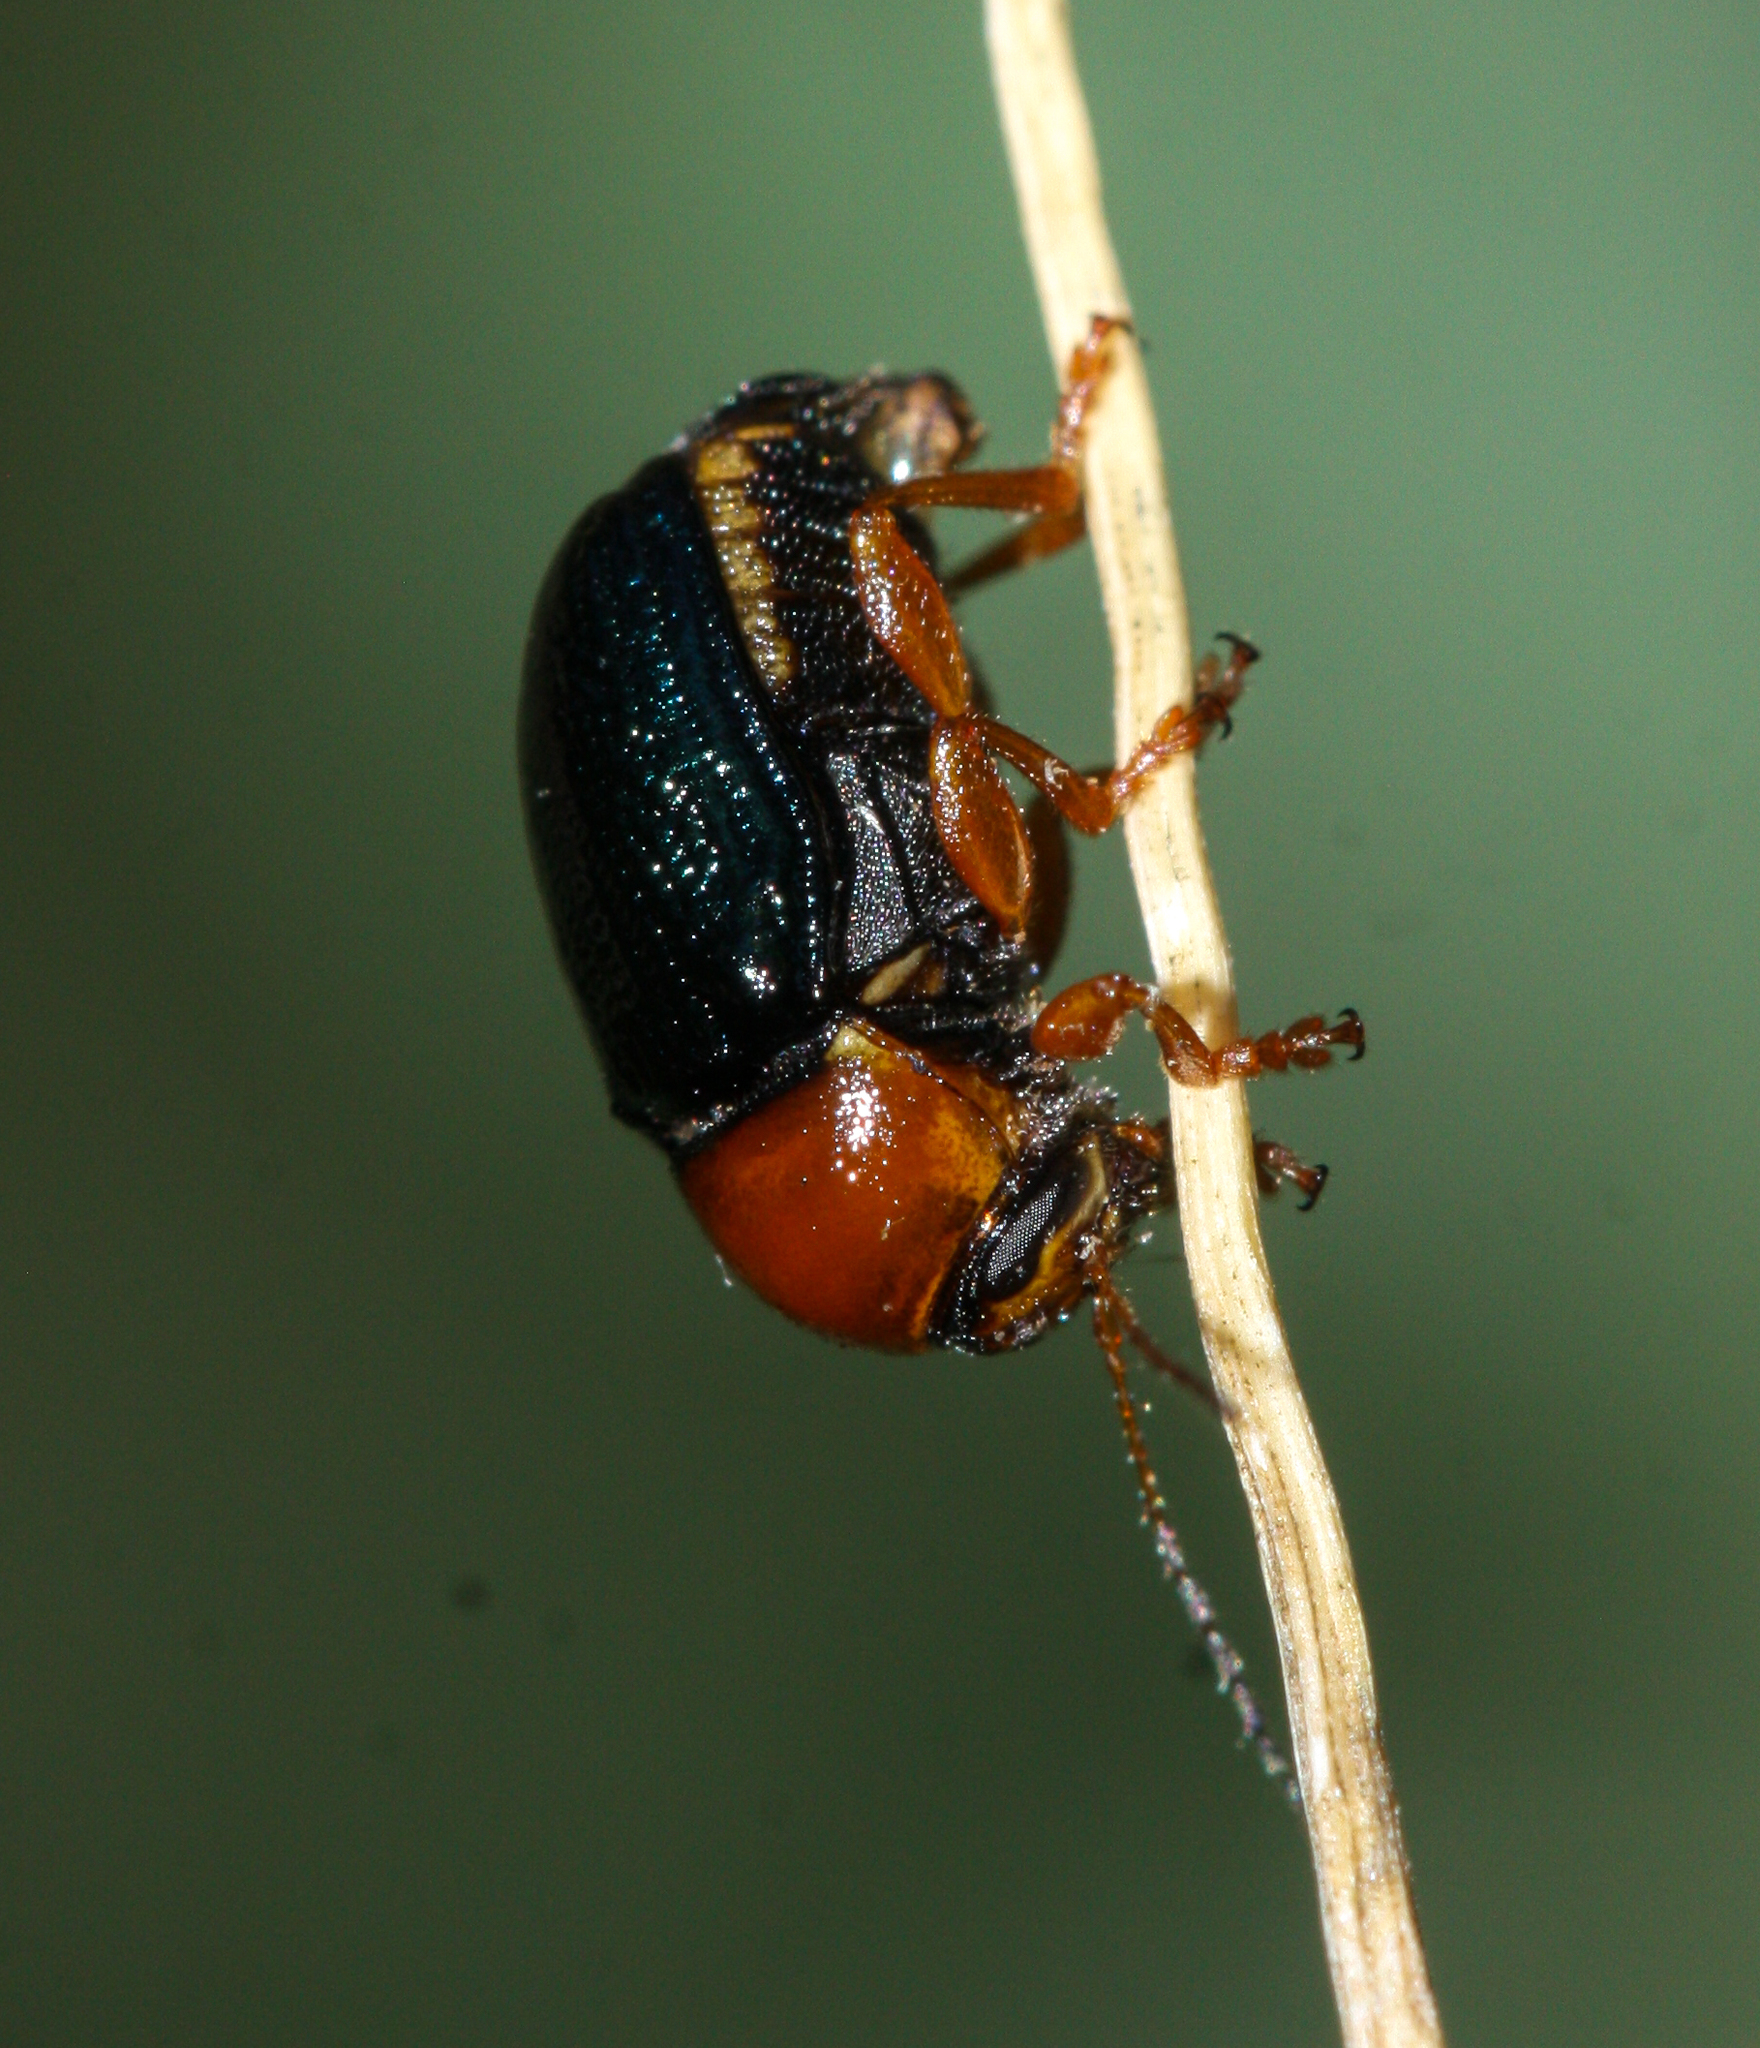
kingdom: Animalia
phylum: Arthropoda
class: Insecta
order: Coleoptera
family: Chrysomelidae
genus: Cryptocephalus
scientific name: Cryptocephalus arizonensis
